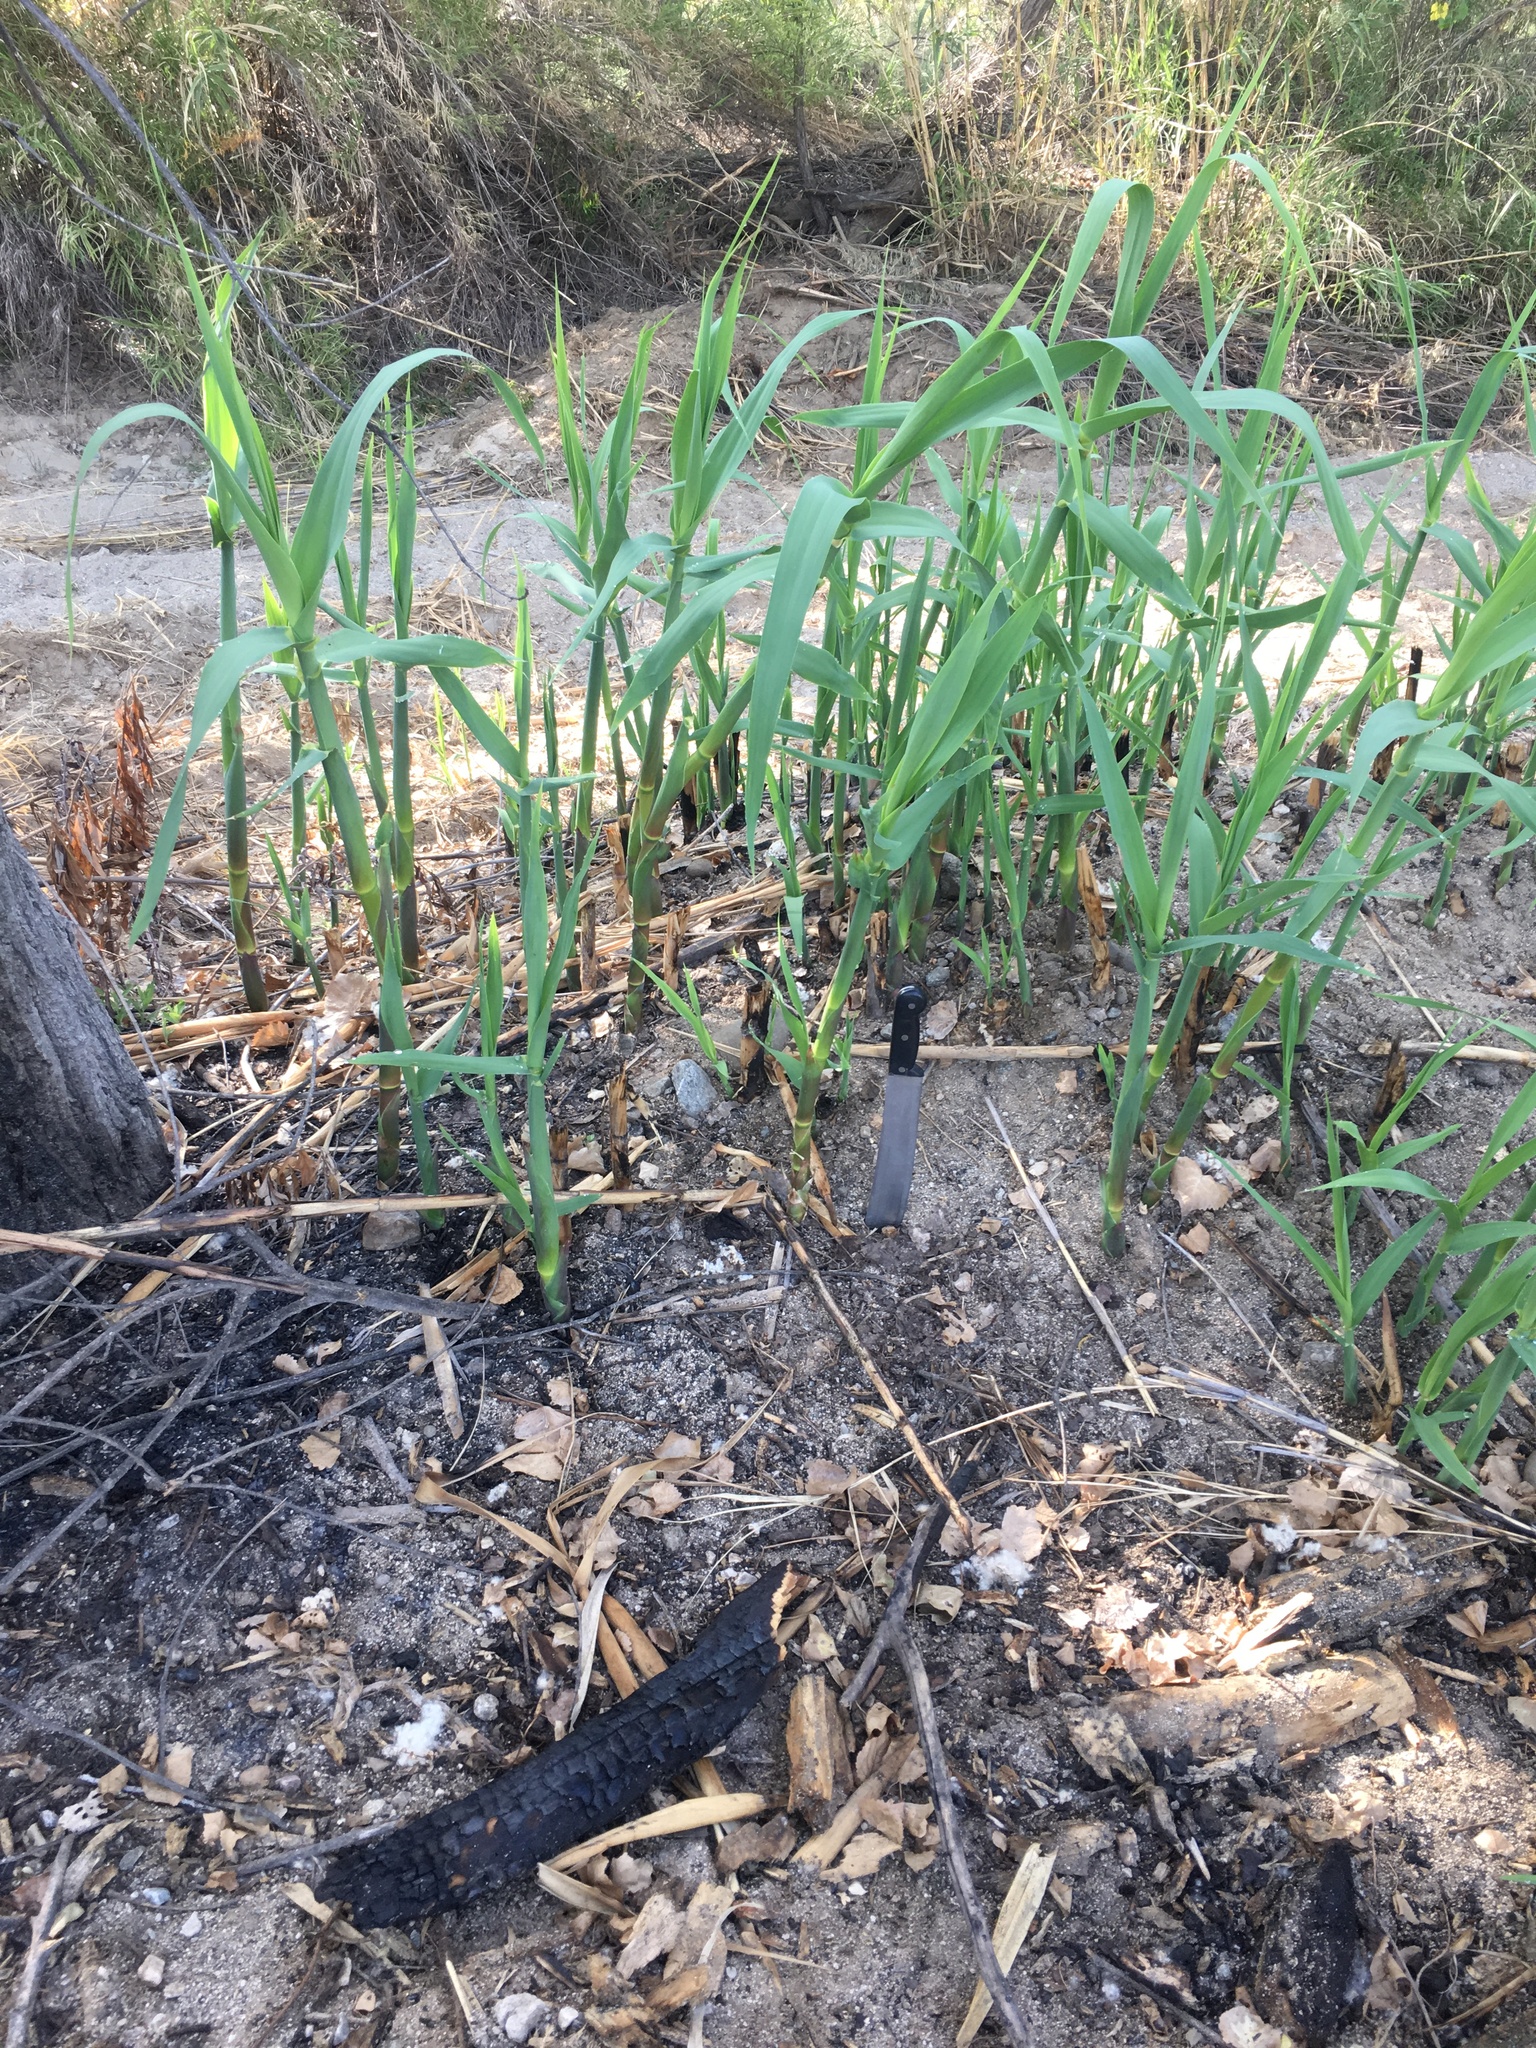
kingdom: Plantae
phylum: Tracheophyta
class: Liliopsida
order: Poales
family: Poaceae
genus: Arundo
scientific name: Arundo donax
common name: Giant reed
